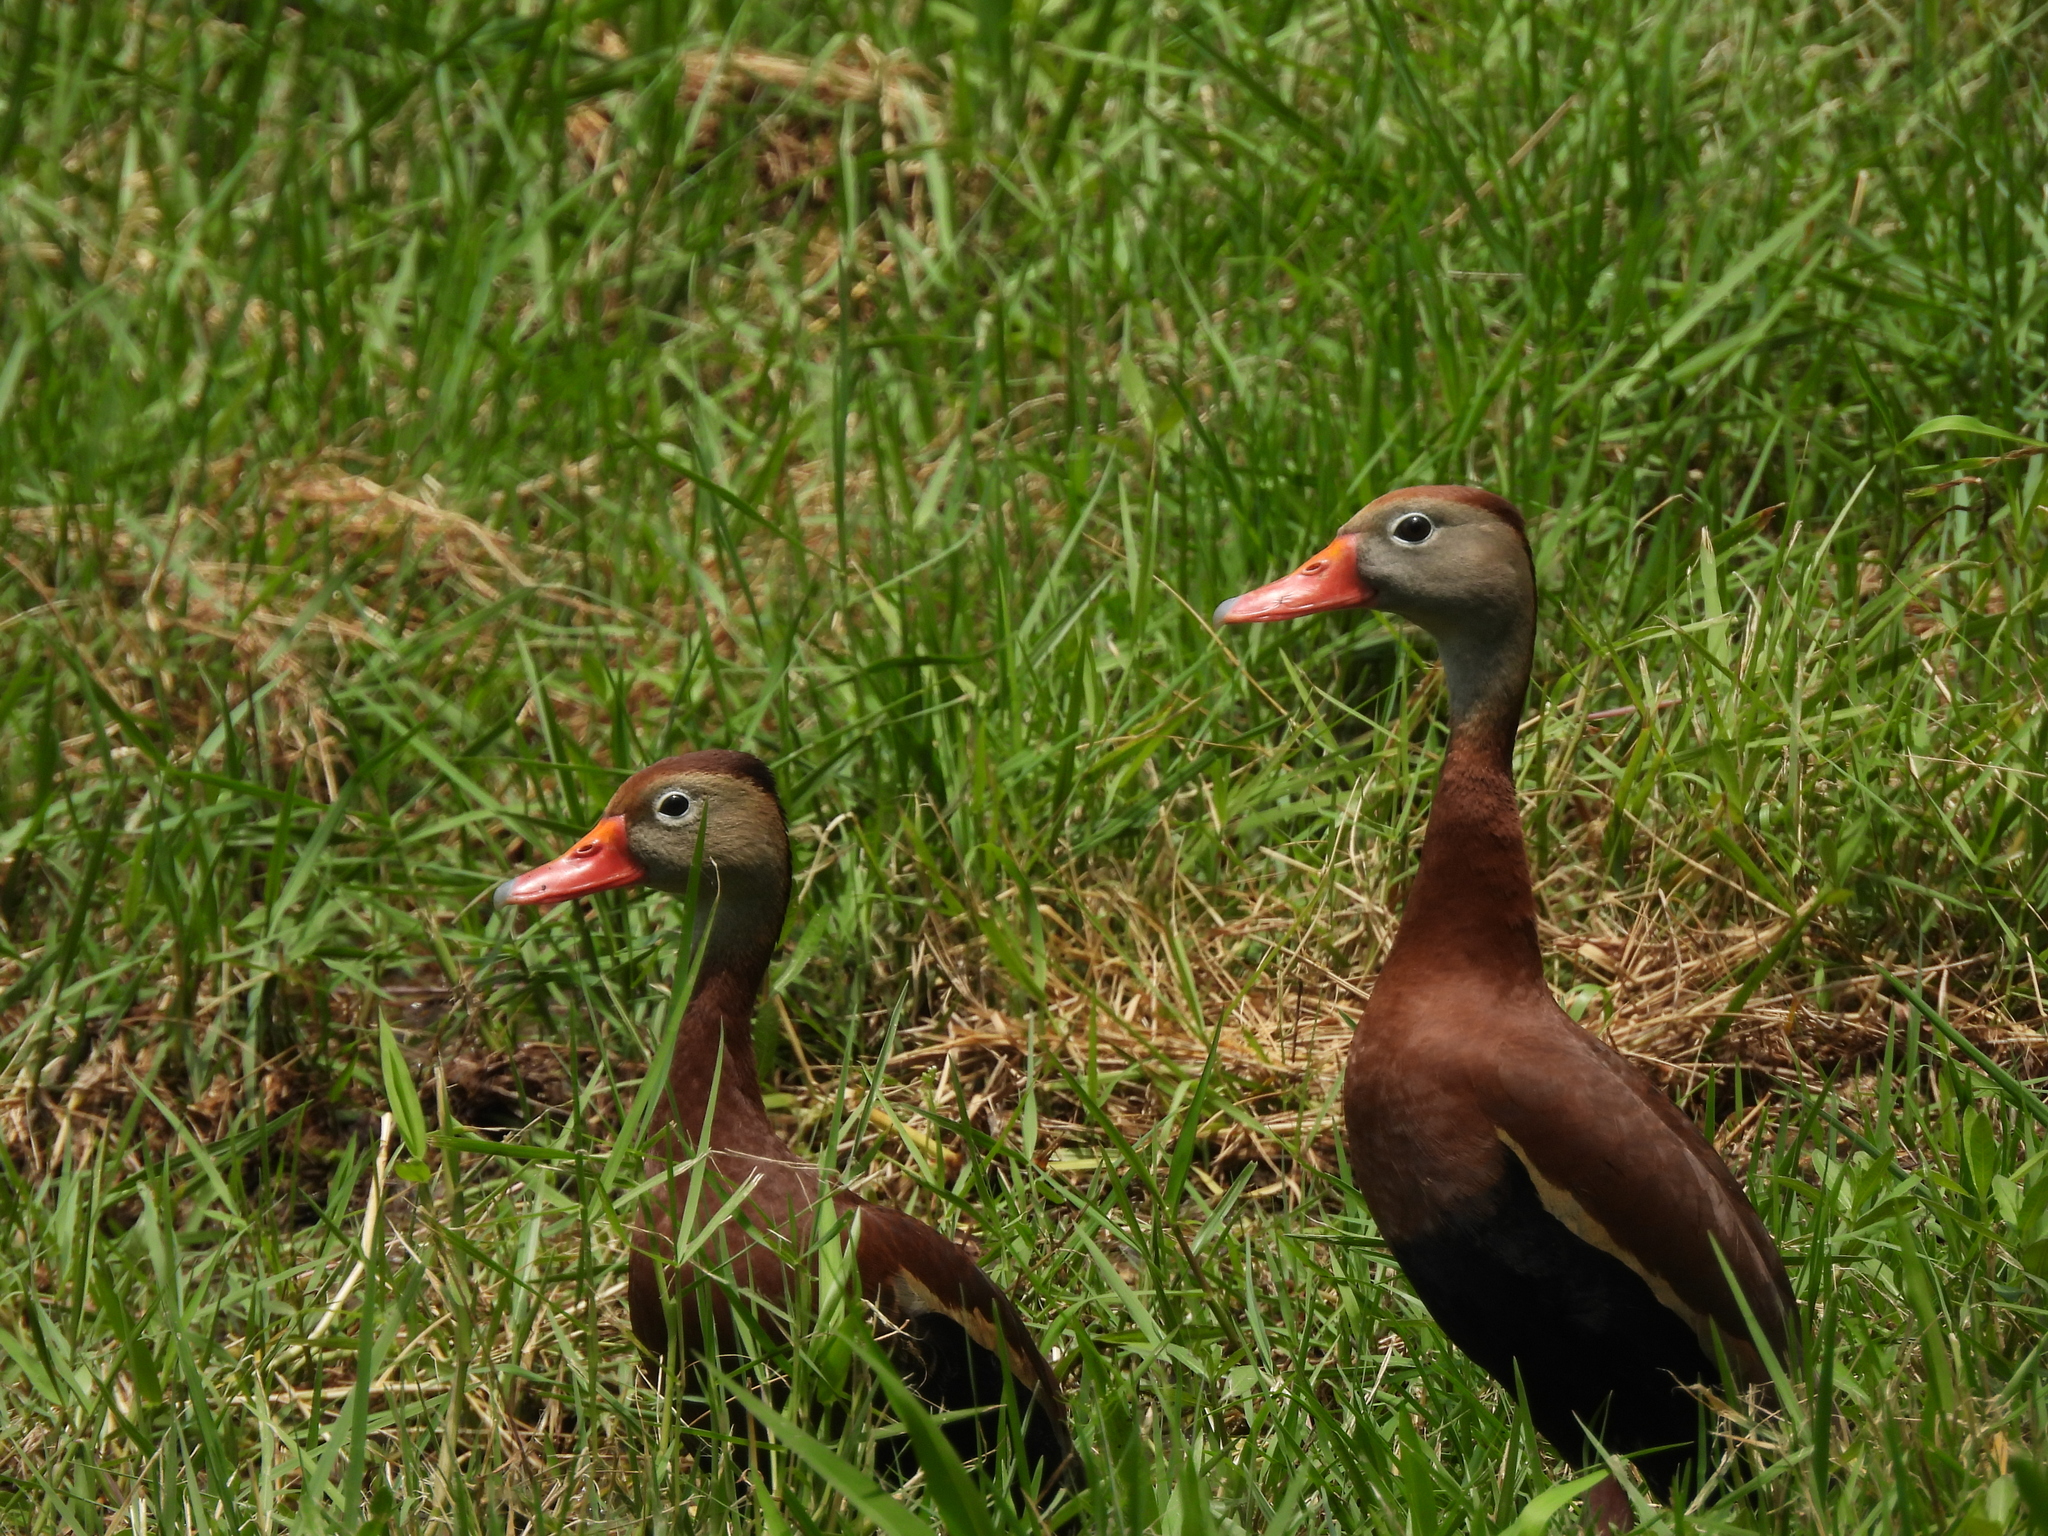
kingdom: Animalia
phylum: Chordata
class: Aves
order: Anseriformes
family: Anatidae
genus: Dendrocygna
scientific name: Dendrocygna autumnalis
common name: Black-bellied whistling duck
